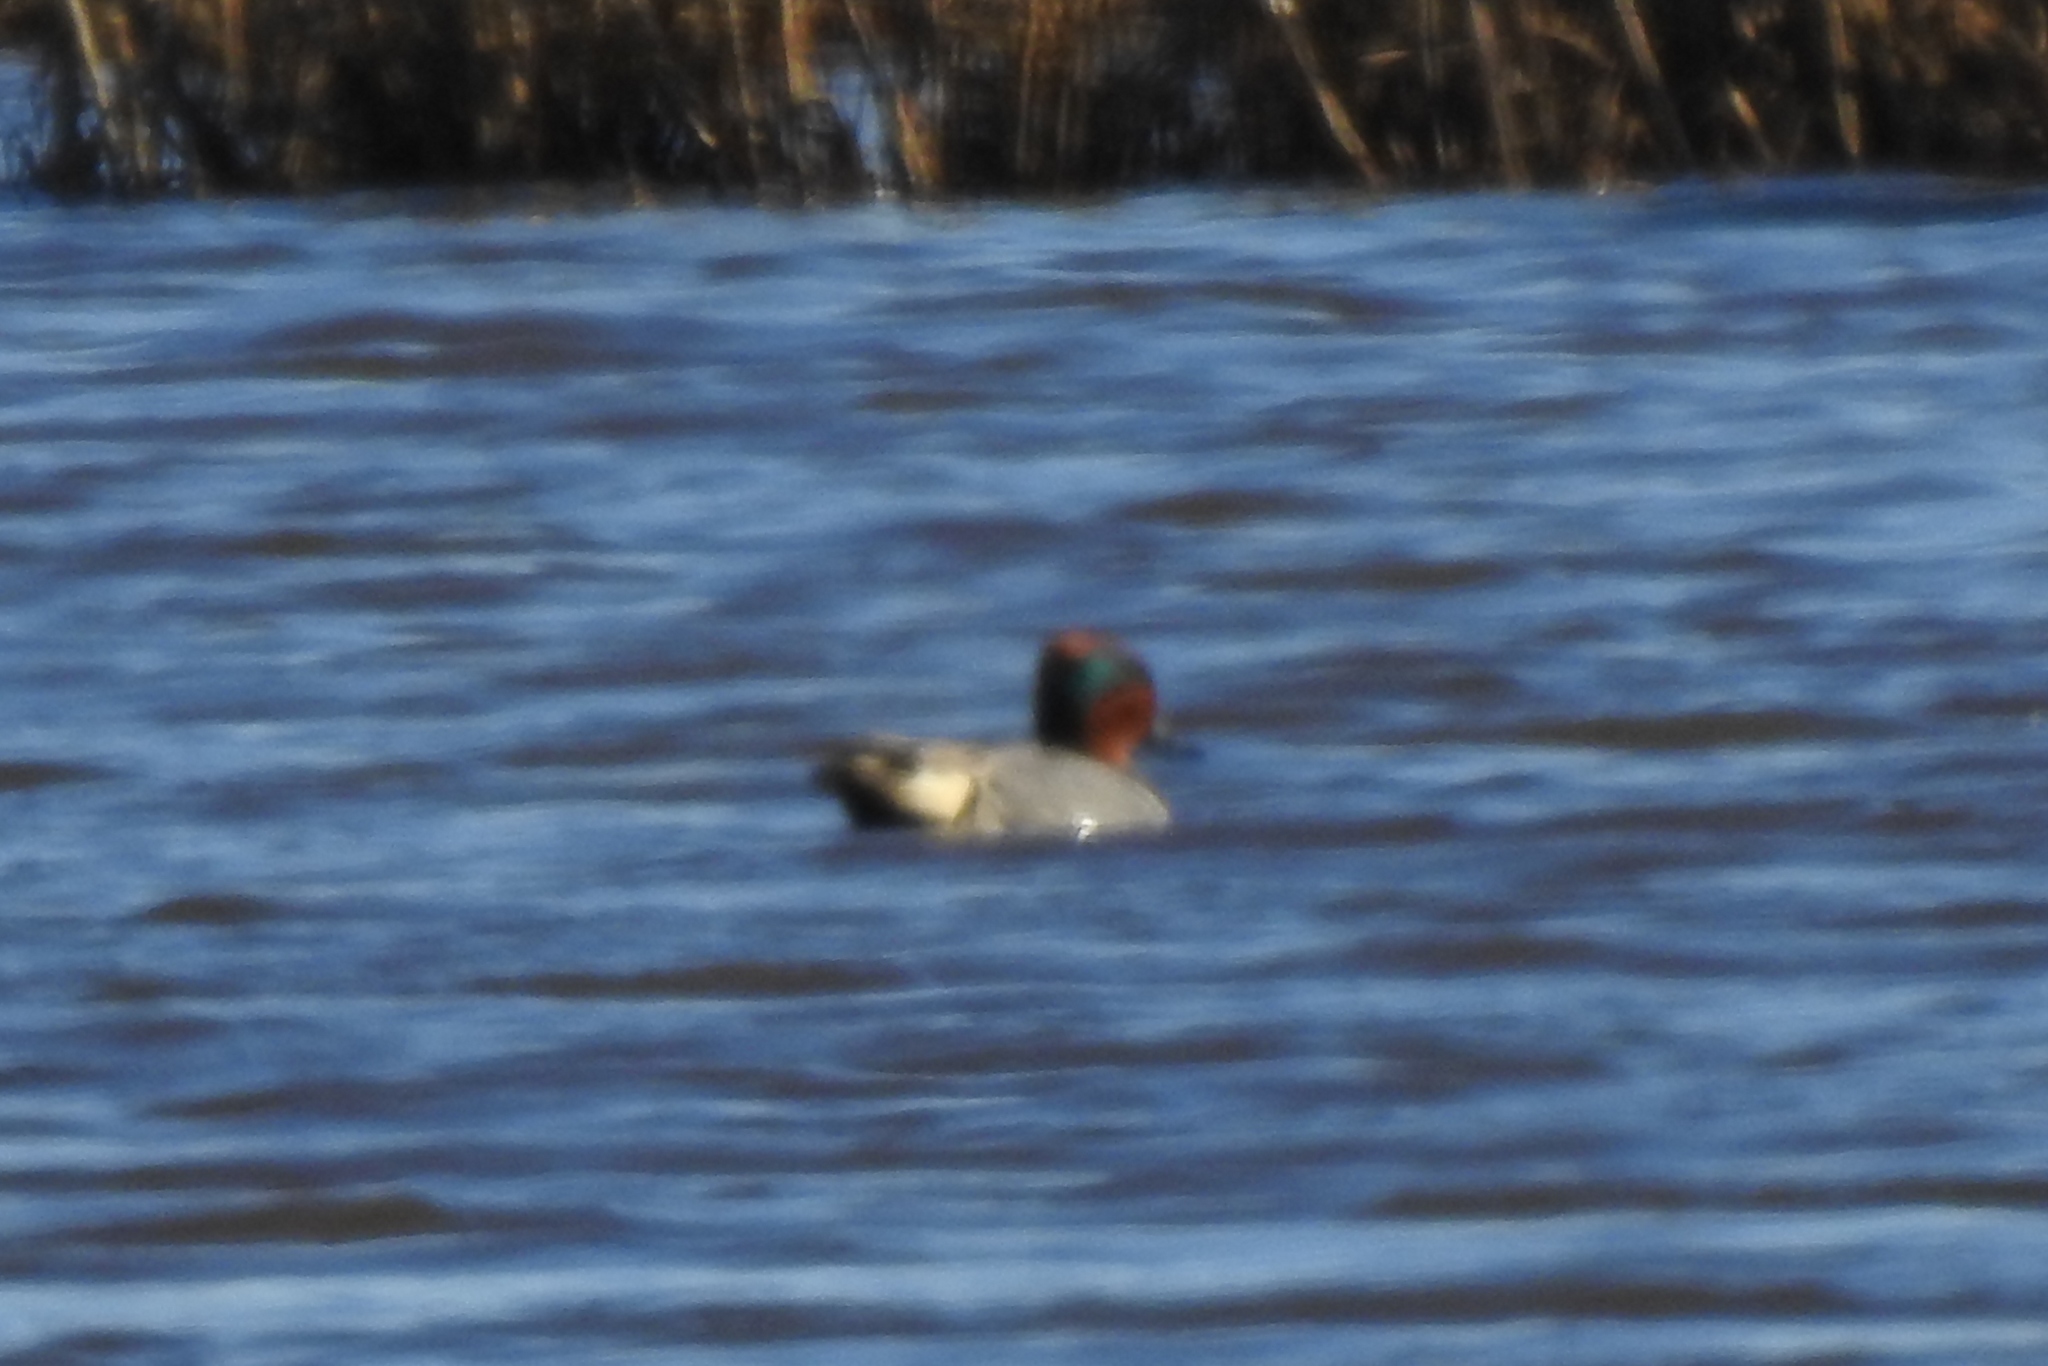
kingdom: Animalia
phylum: Chordata
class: Aves
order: Anseriformes
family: Anatidae
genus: Anas
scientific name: Anas crecca
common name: Eurasian teal
